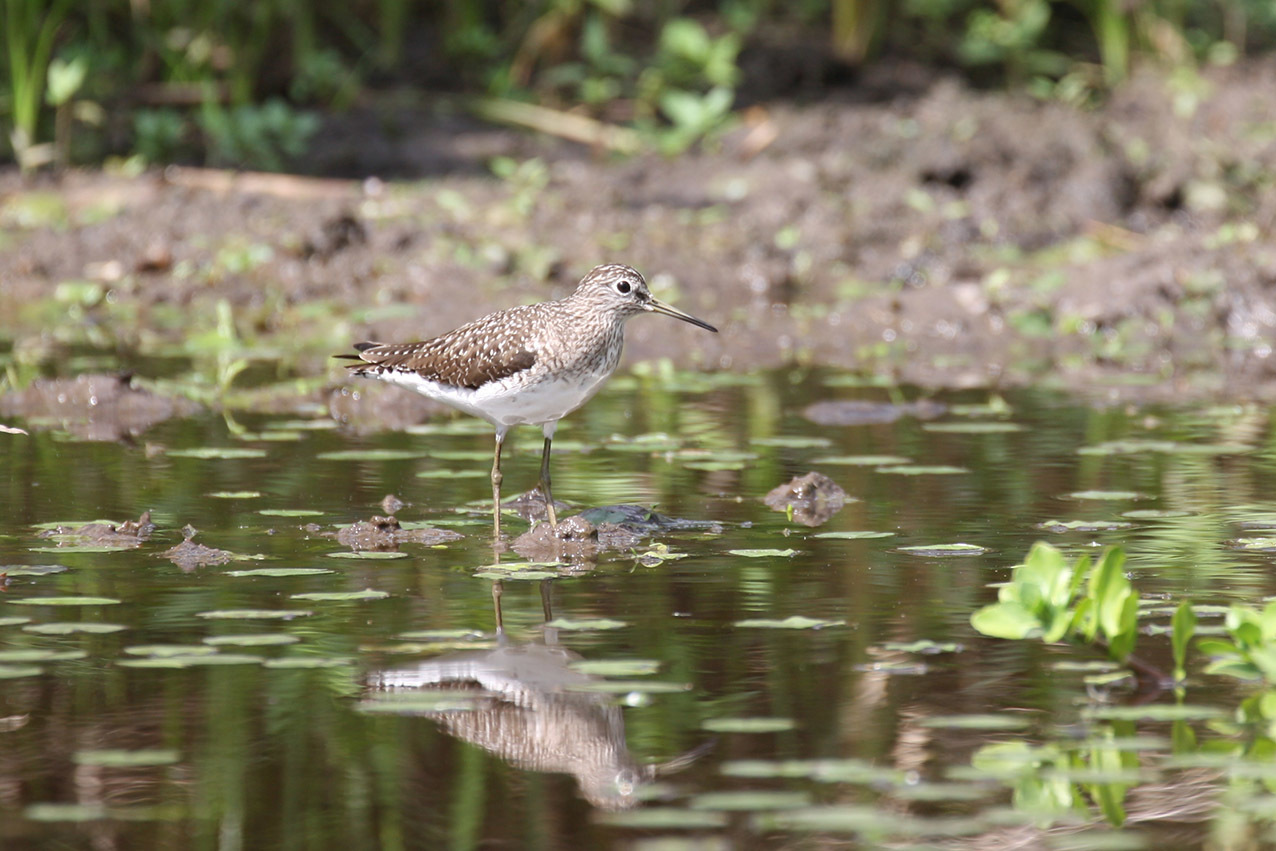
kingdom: Animalia
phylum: Chordata
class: Aves
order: Charadriiformes
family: Scolopacidae
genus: Tringa
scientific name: Tringa solitaria
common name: Solitary sandpiper
